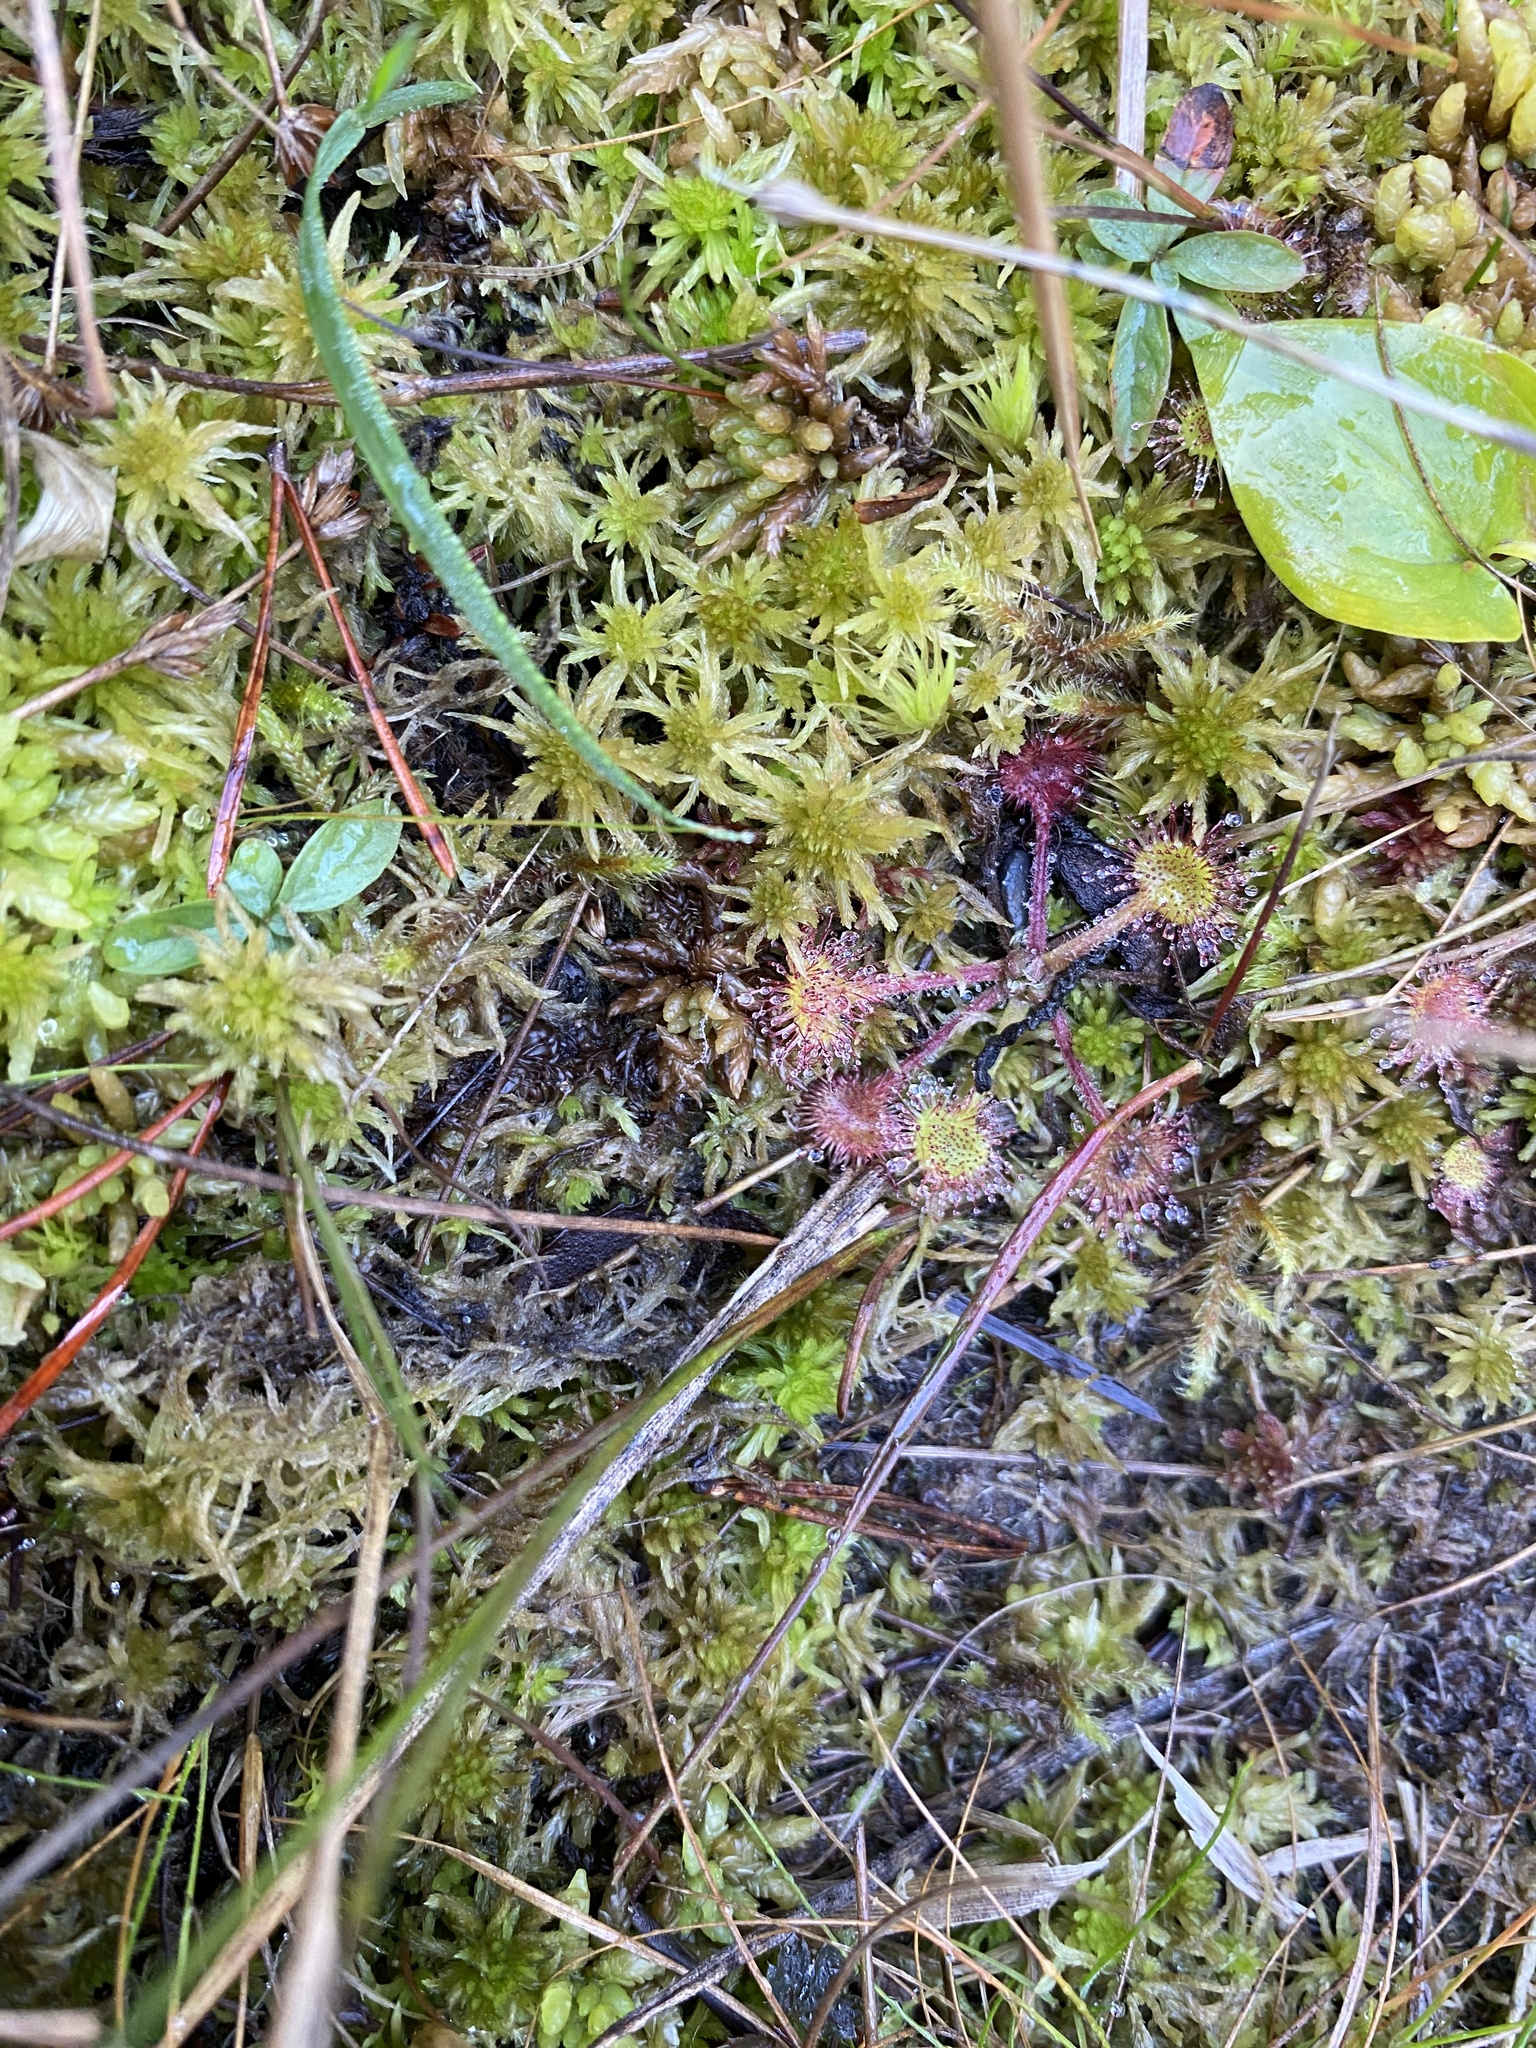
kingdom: Plantae
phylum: Tracheophyta
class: Magnoliopsida
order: Caryophyllales
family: Droseraceae
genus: Drosera
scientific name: Drosera rotundifolia
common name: Round-leaved sundew
